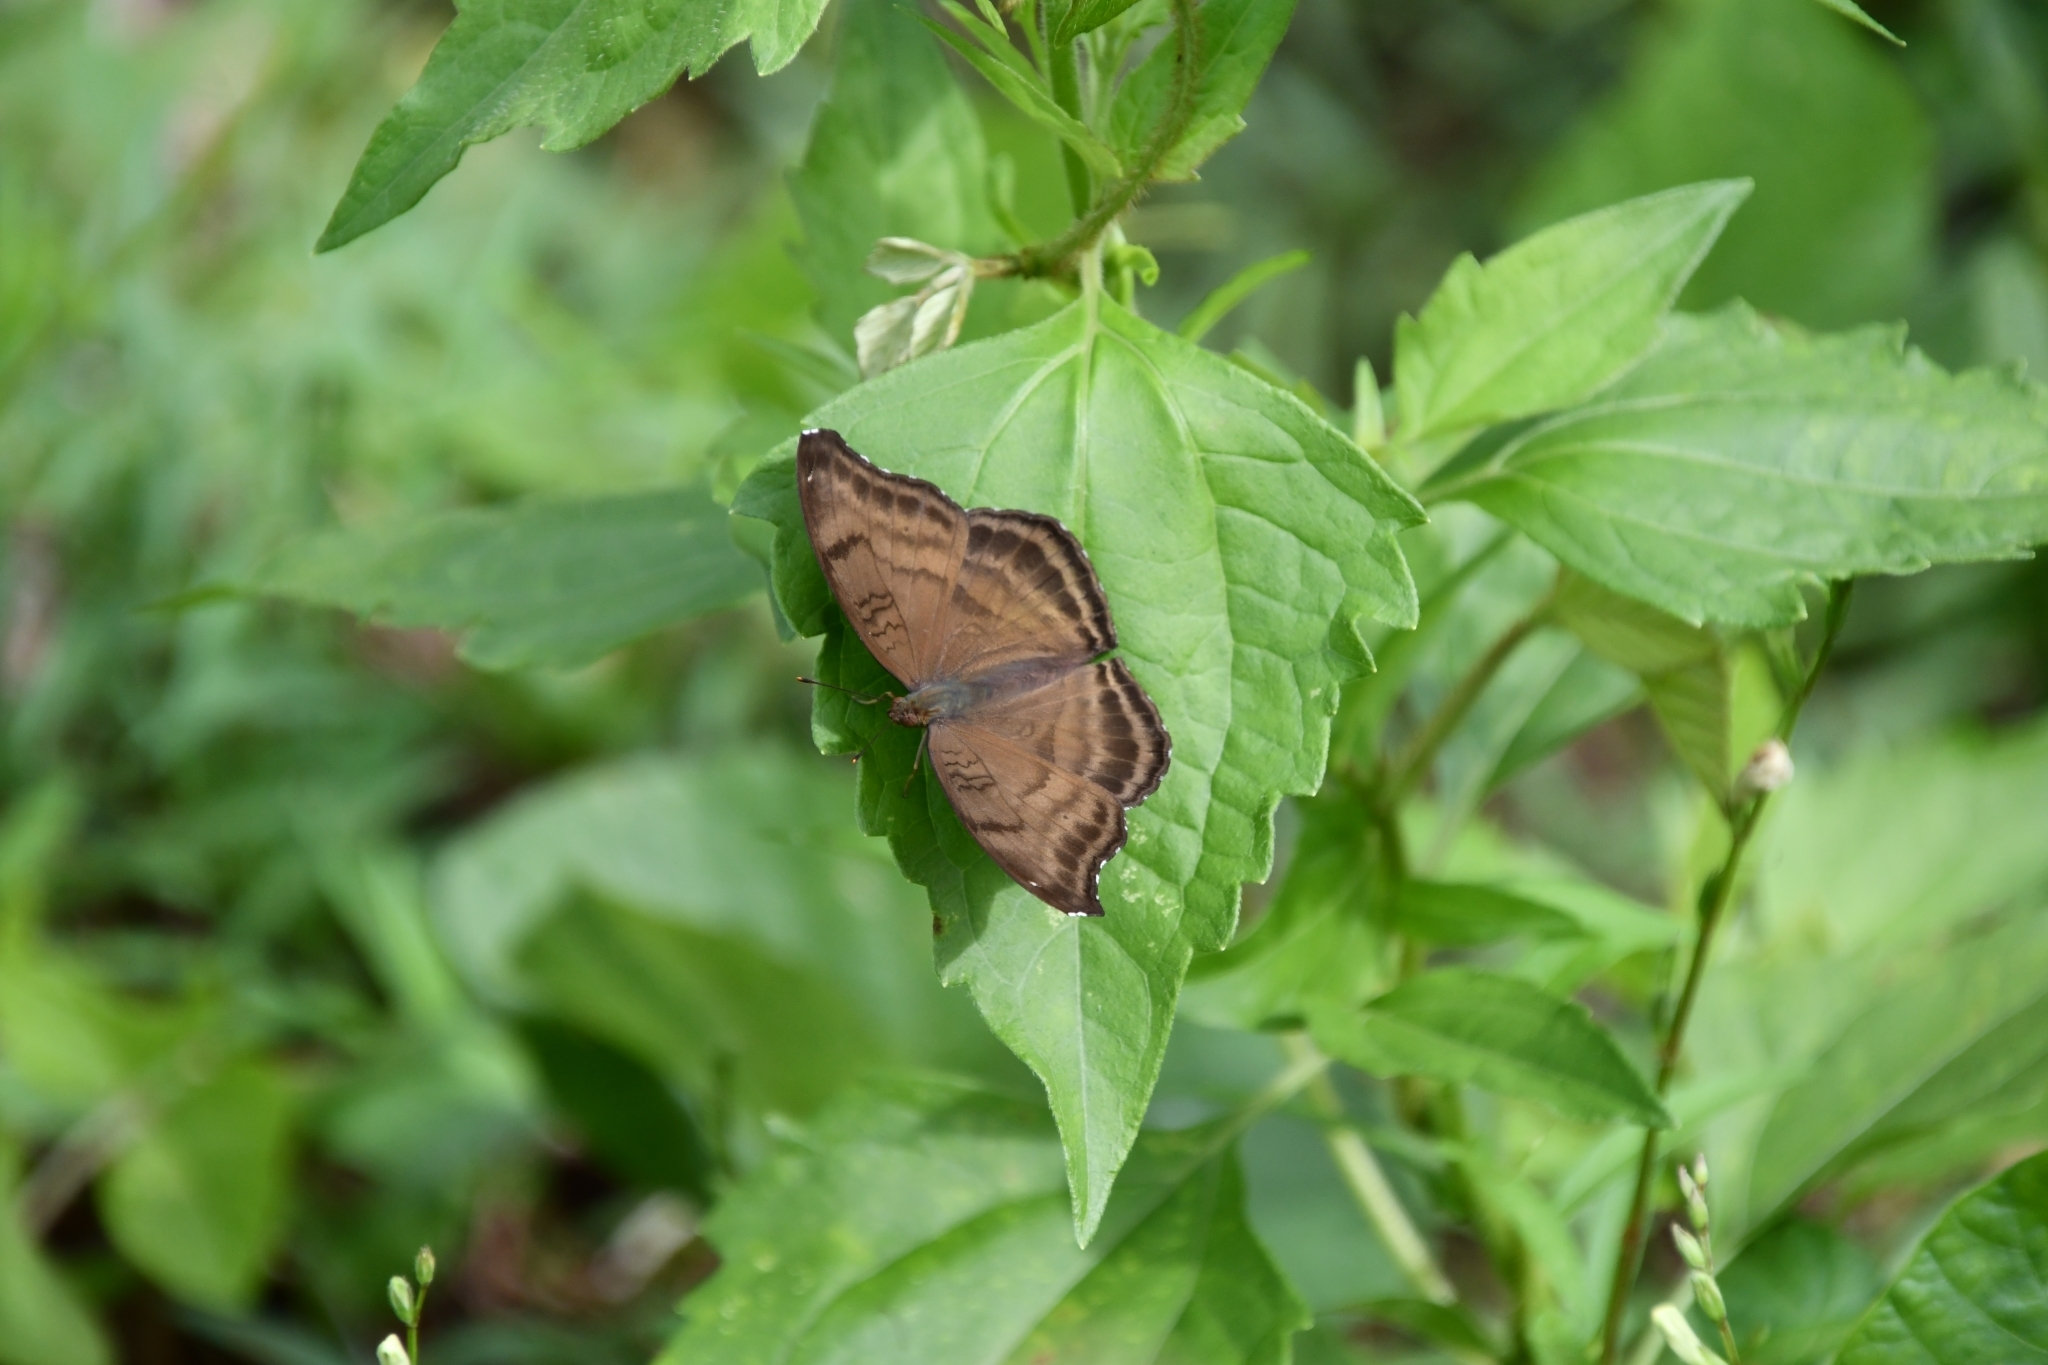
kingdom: Animalia
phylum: Arthropoda
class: Insecta
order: Lepidoptera
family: Nymphalidae
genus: Junonia
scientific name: Junonia iphita
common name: Chocolate pansy
